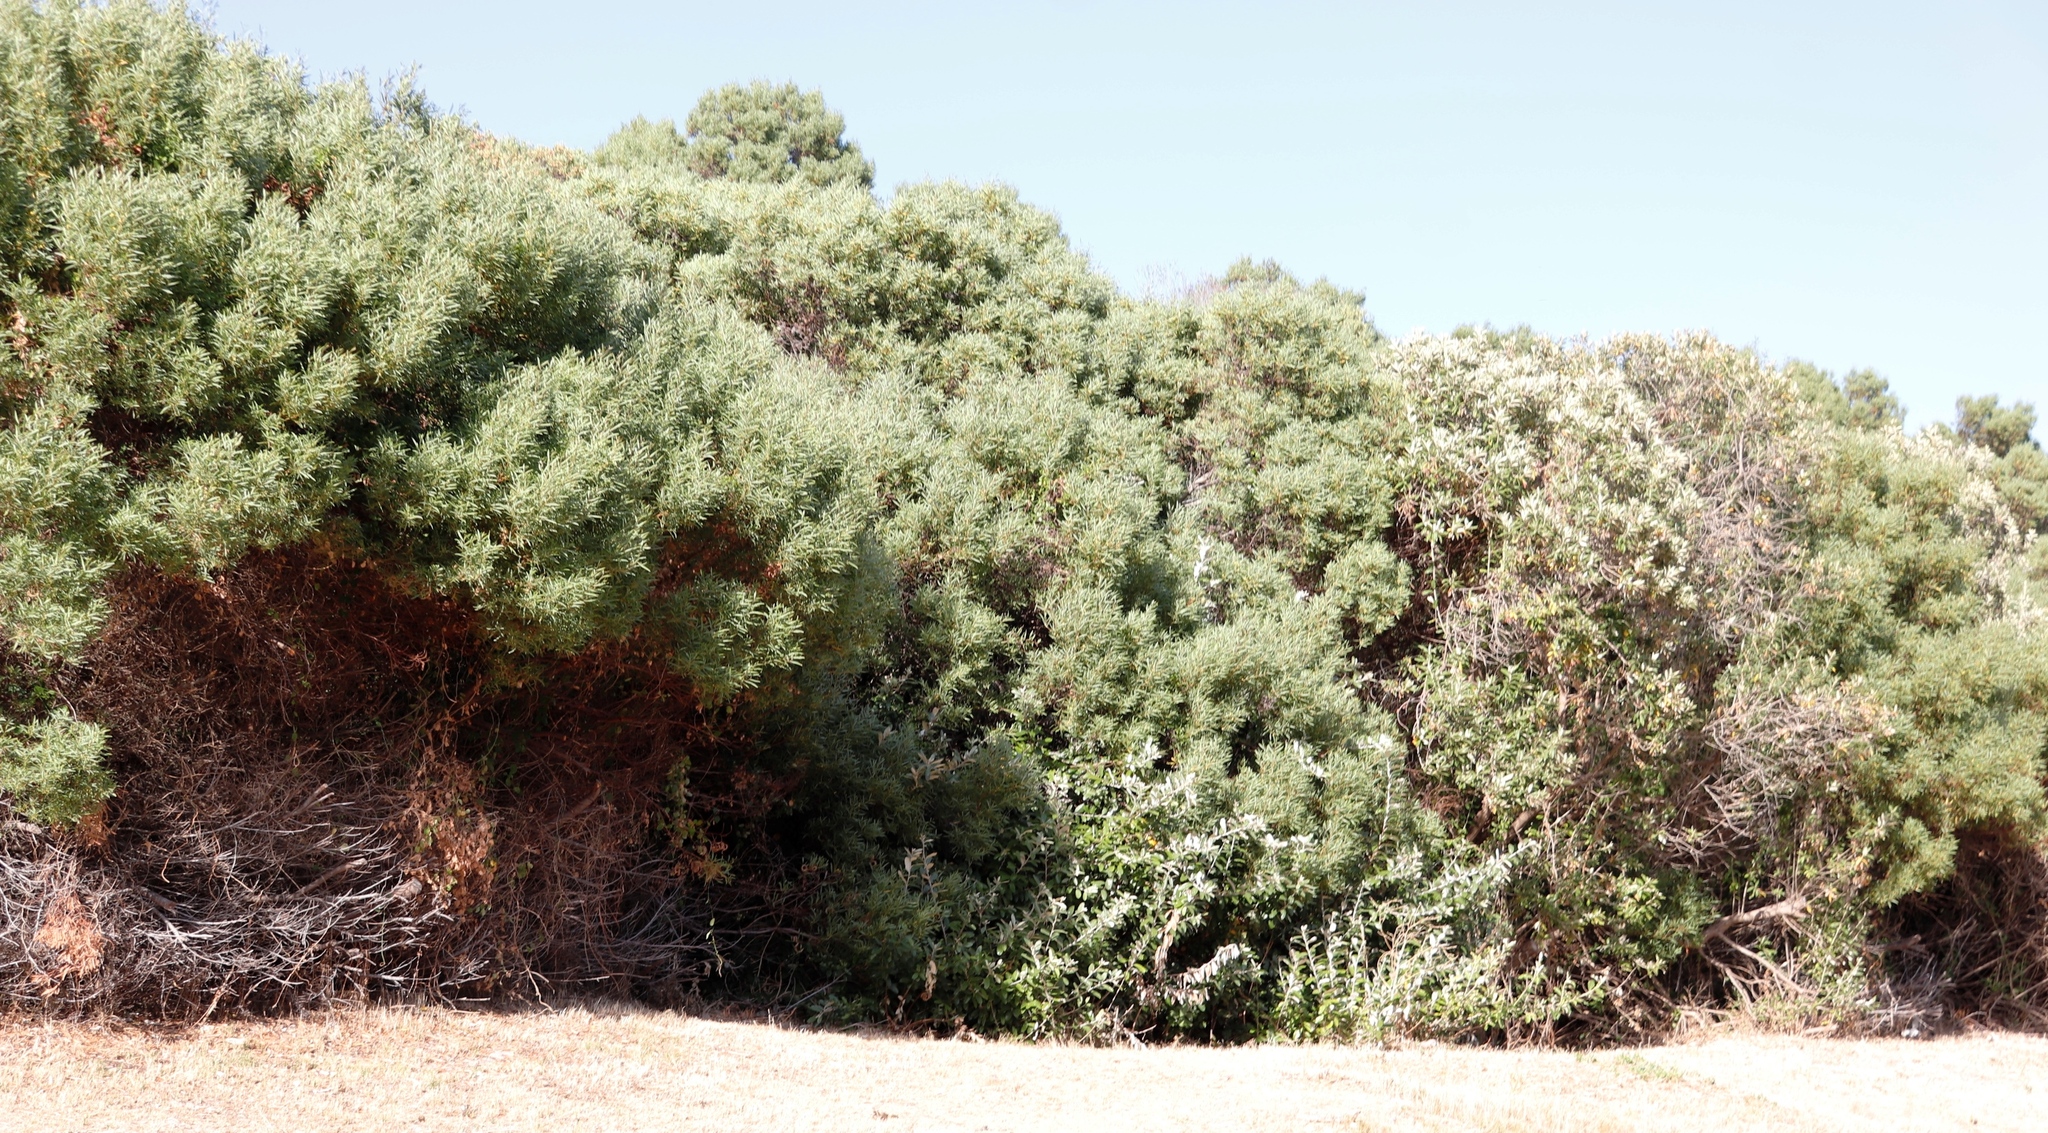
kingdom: Plantae
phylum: Tracheophyta
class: Magnoliopsida
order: Fabales
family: Fabaceae
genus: Acacia
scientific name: Acacia cyclops
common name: Coastal wattle
